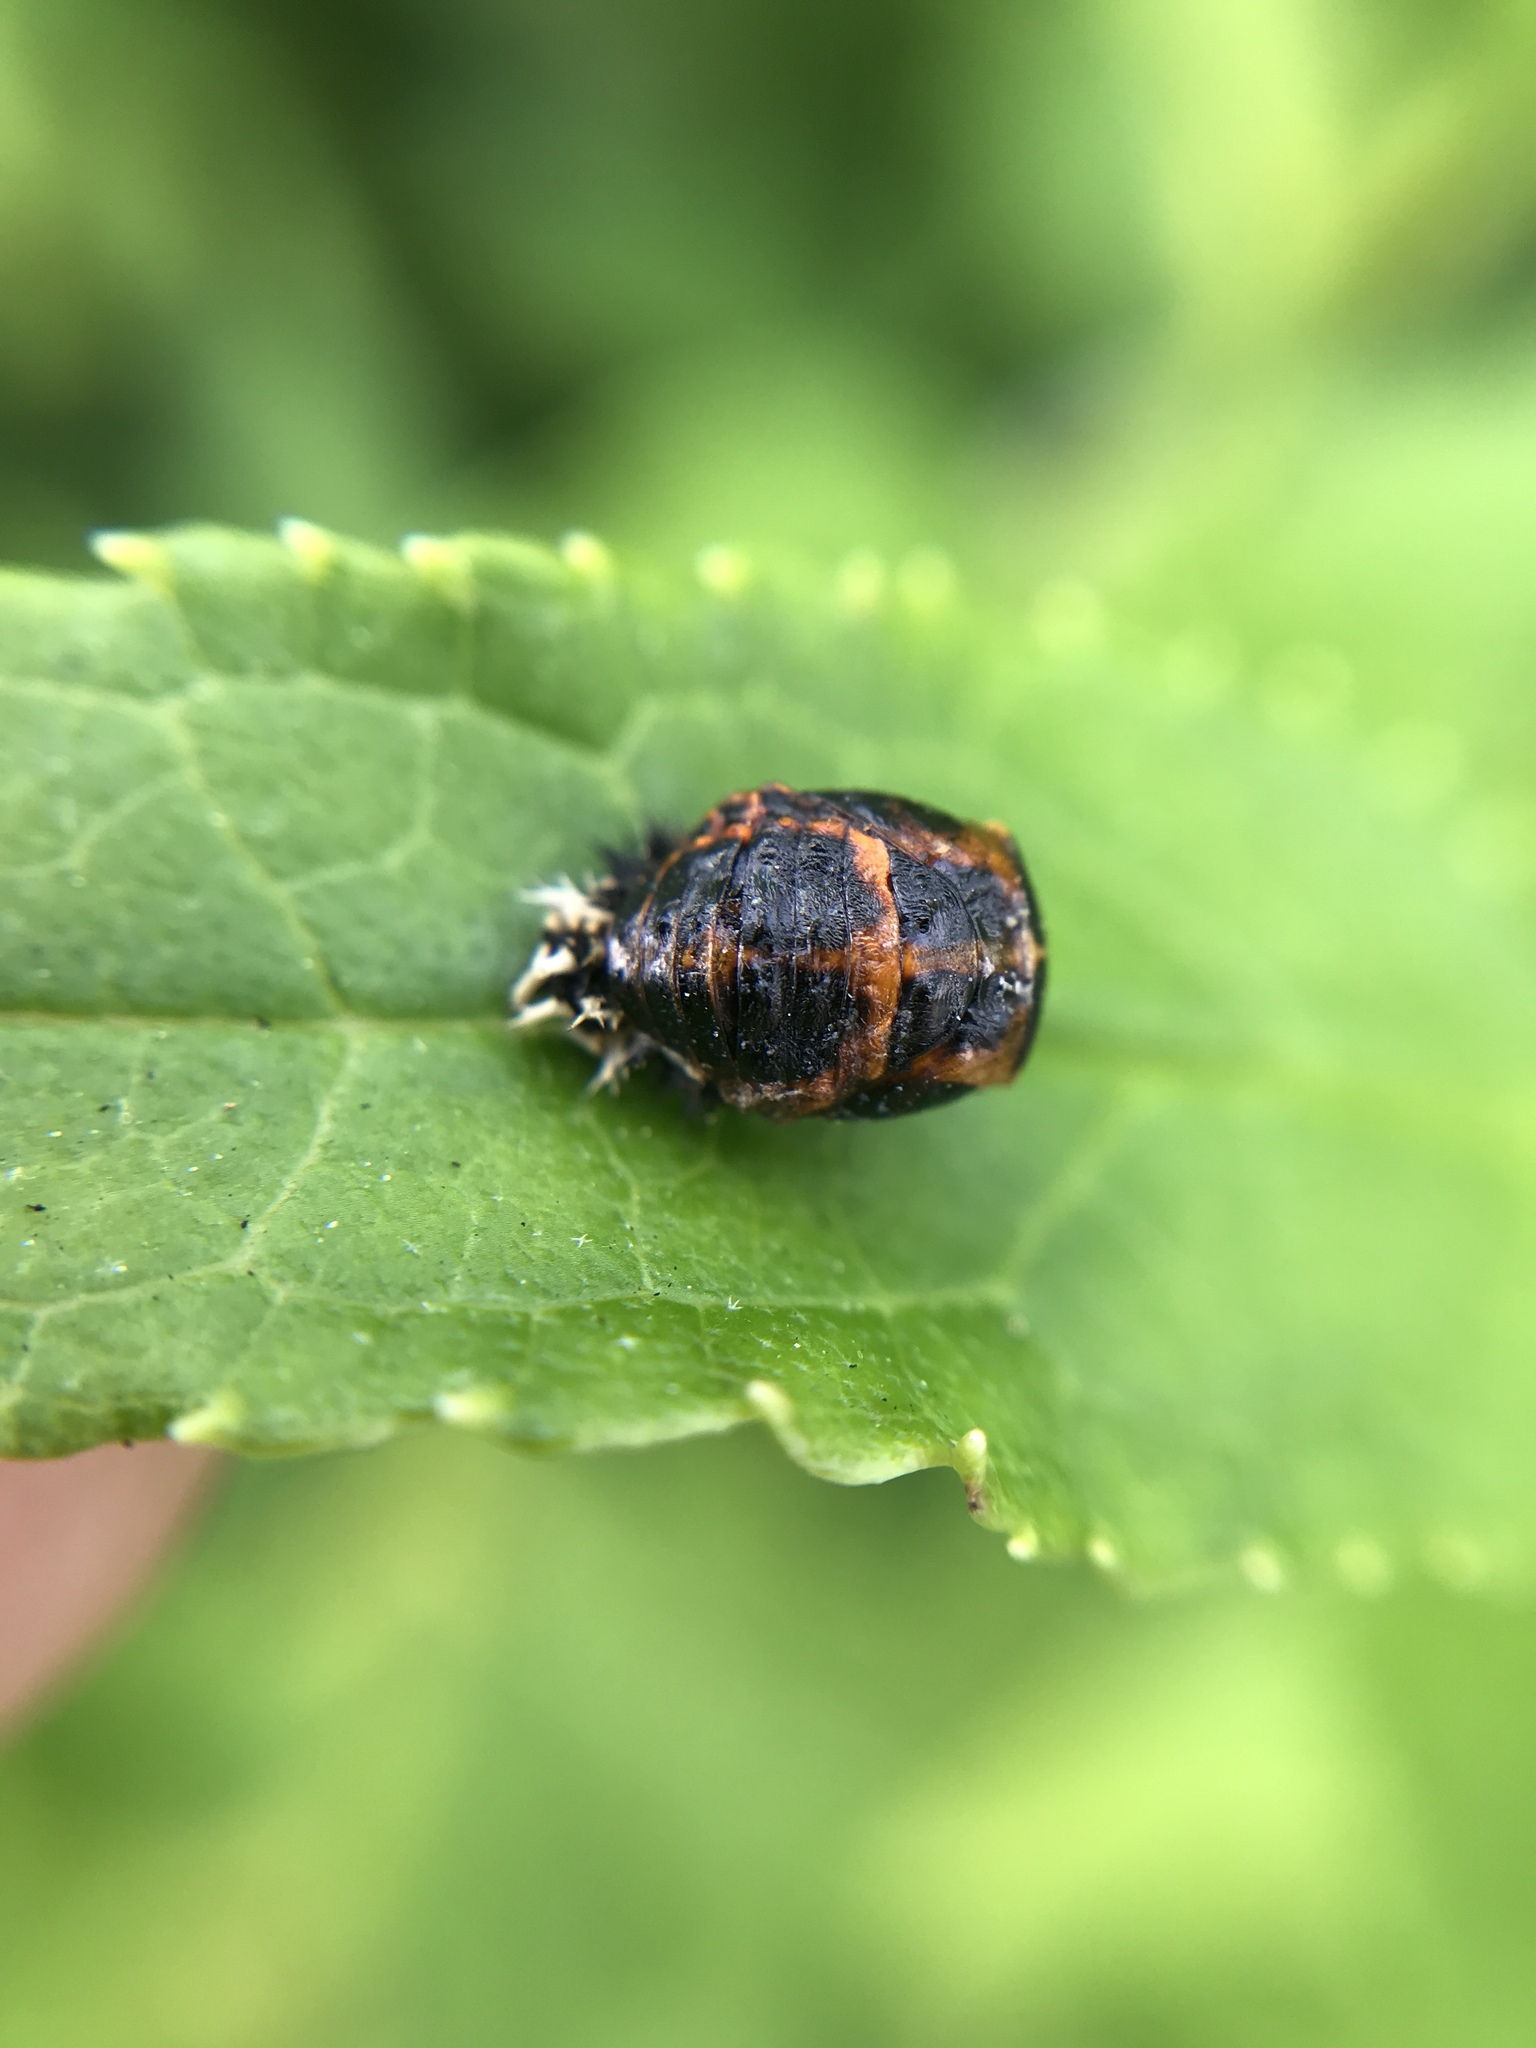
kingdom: Animalia
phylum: Arthropoda
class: Insecta
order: Coleoptera
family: Coccinellidae
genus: Harmonia
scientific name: Harmonia axyridis
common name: Harlequin ladybird
